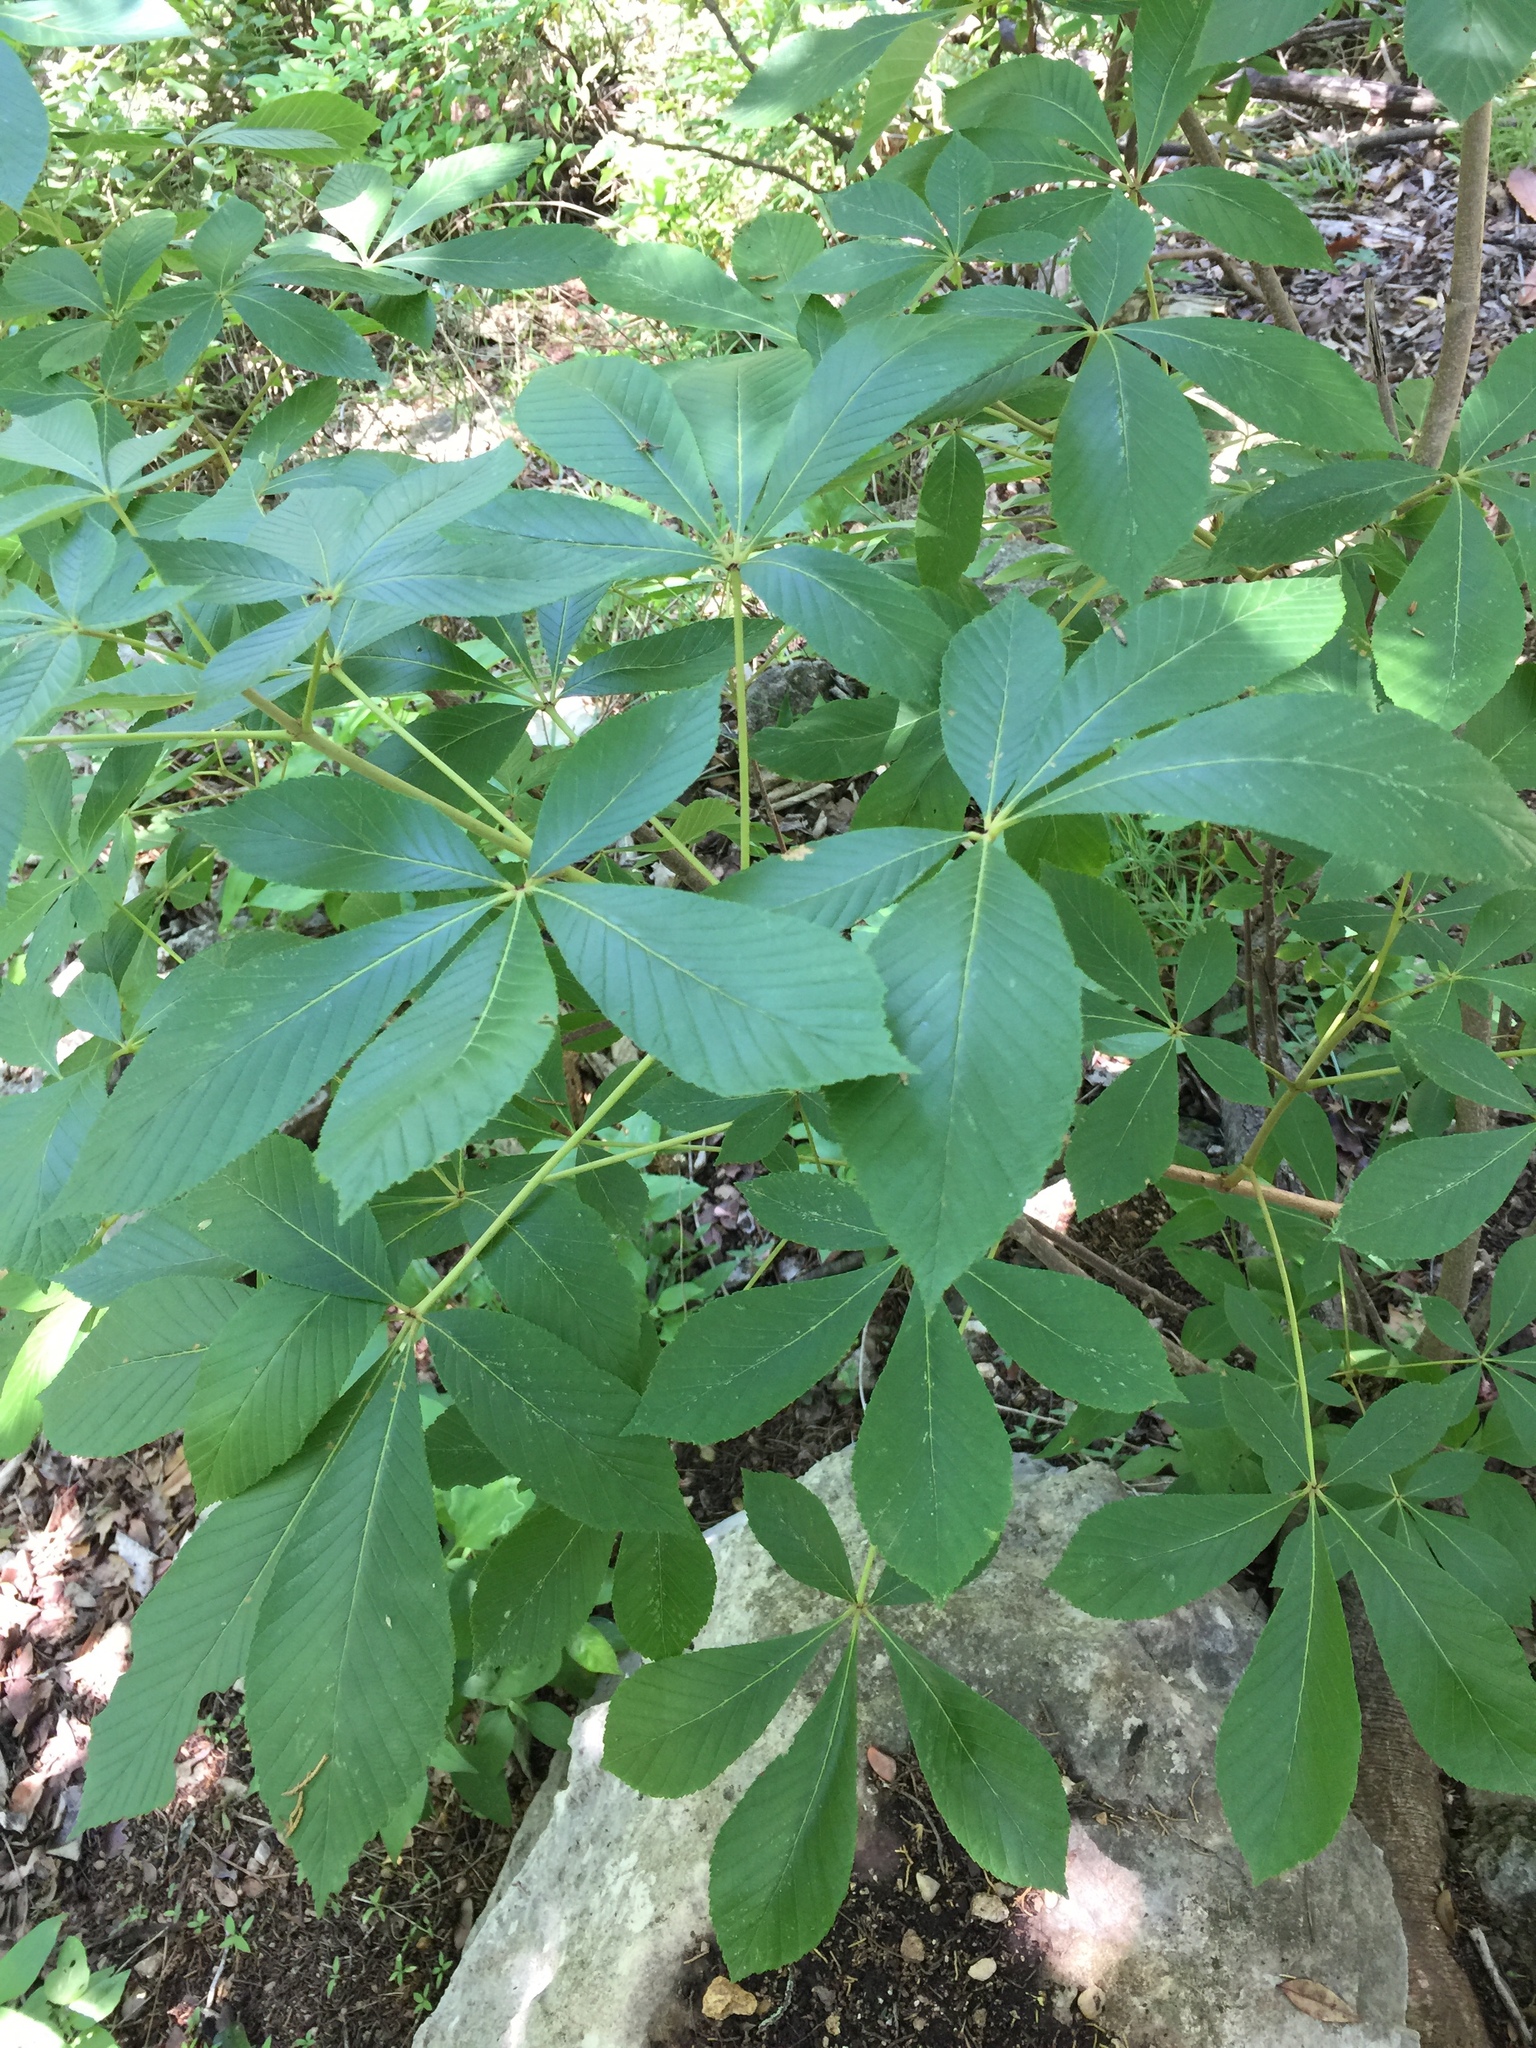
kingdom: Plantae
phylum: Tracheophyta
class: Magnoliopsida
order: Sapindales
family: Sapindaceae
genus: Aesculus
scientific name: Aesculus pavia
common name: Red buckeye
